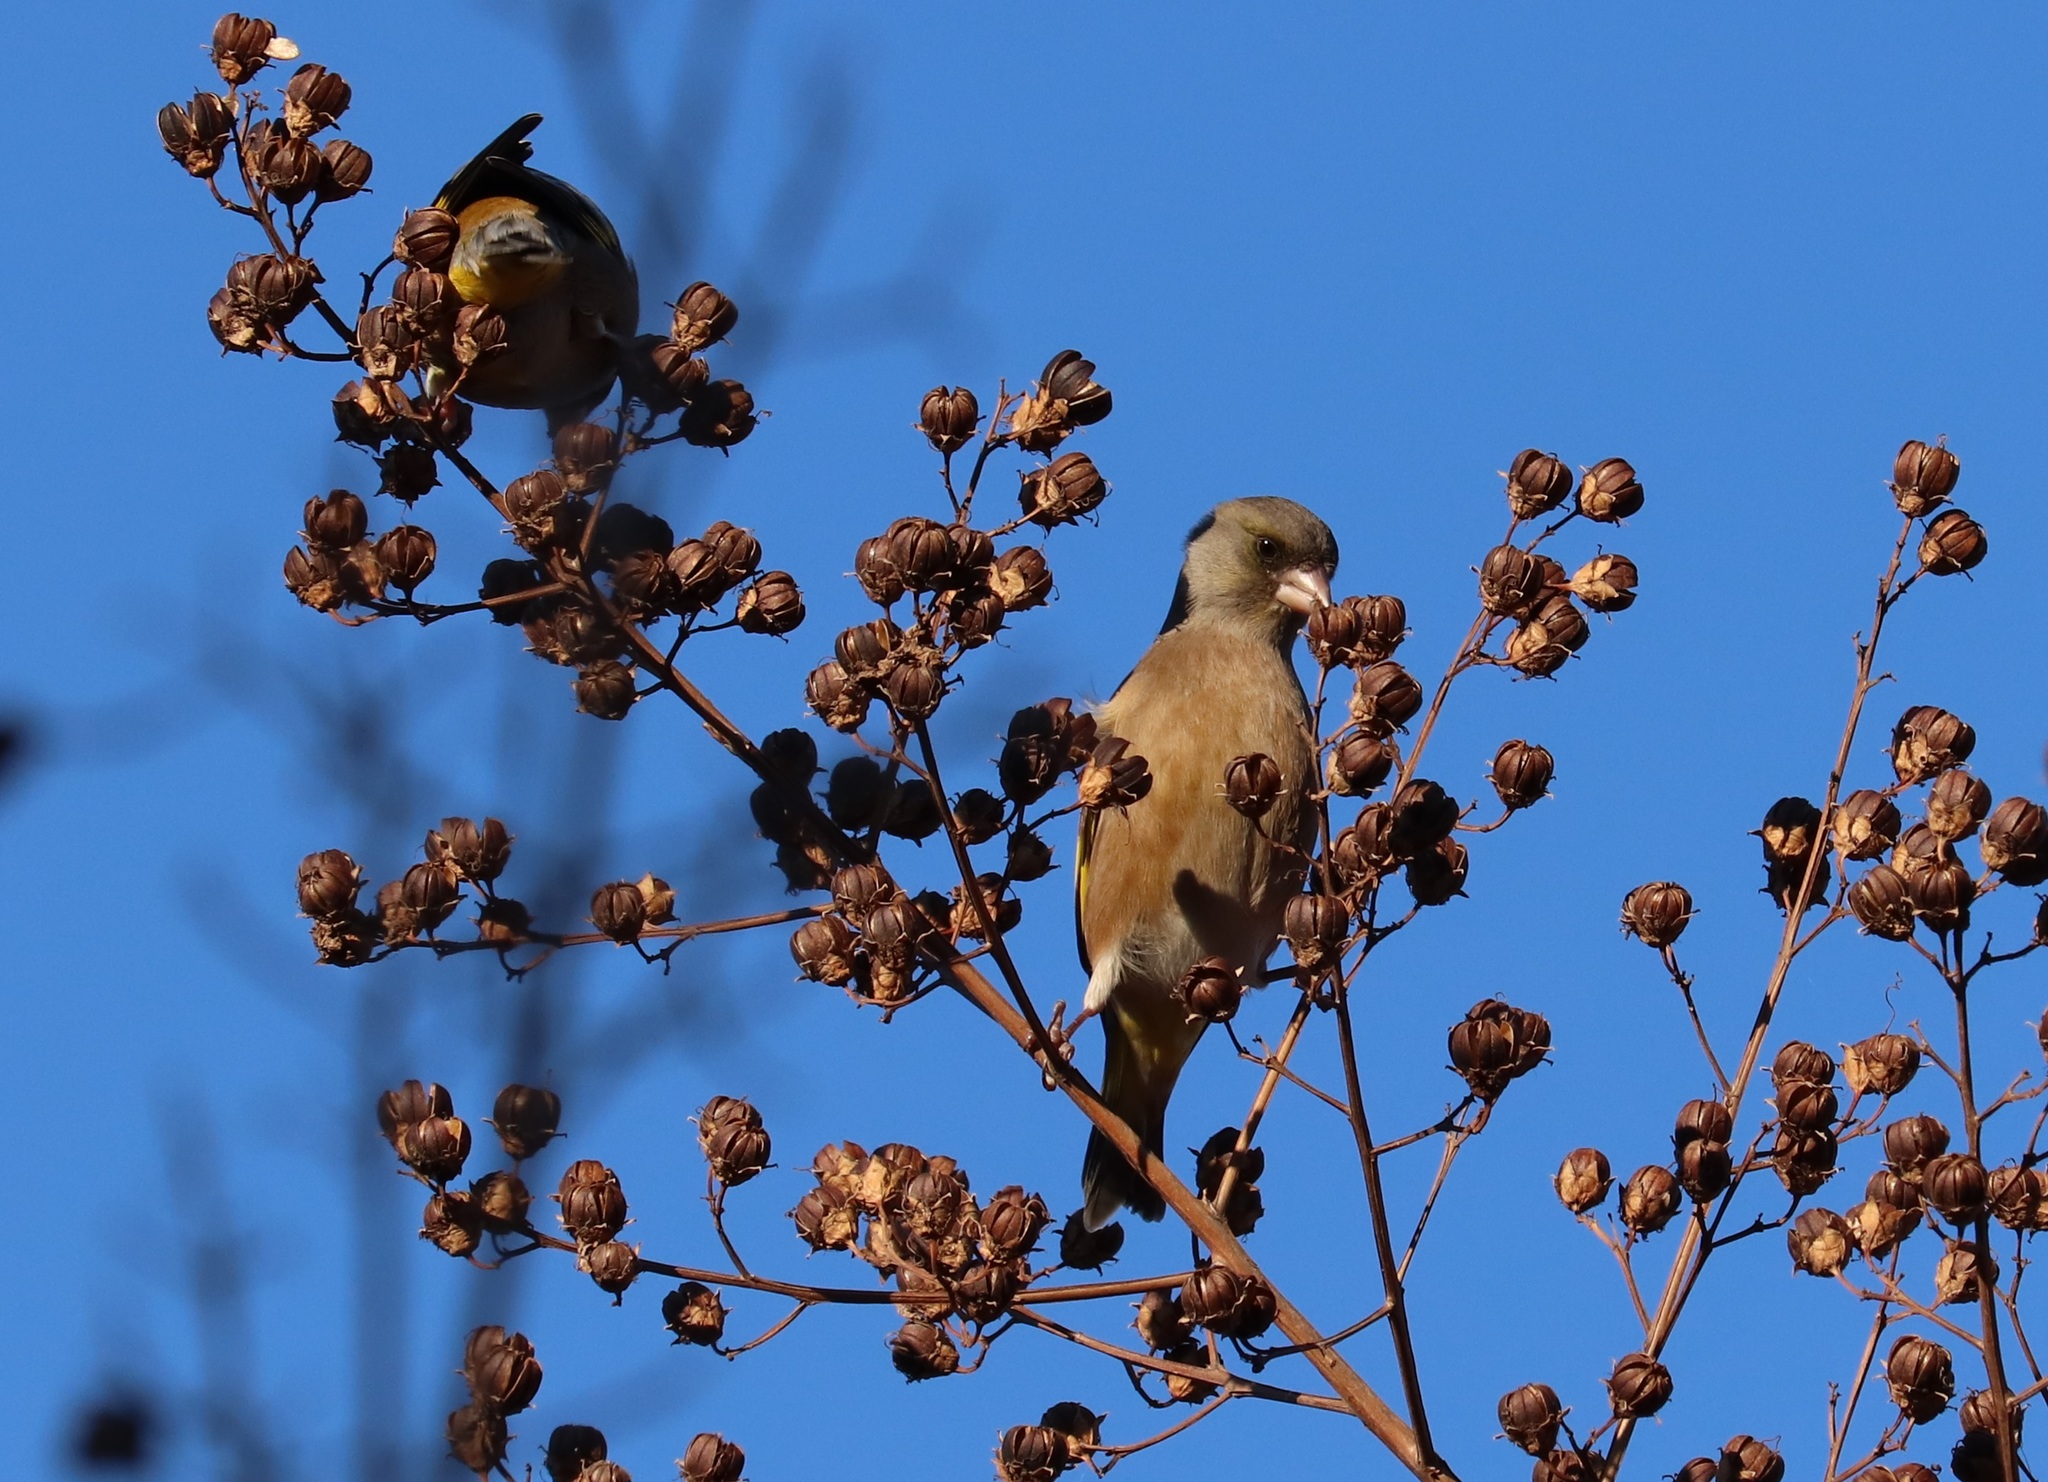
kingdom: Plantae
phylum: Tracheophyta
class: Liliopsida
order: Poales
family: Poaceae
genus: Chloris
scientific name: Chloris sinica
